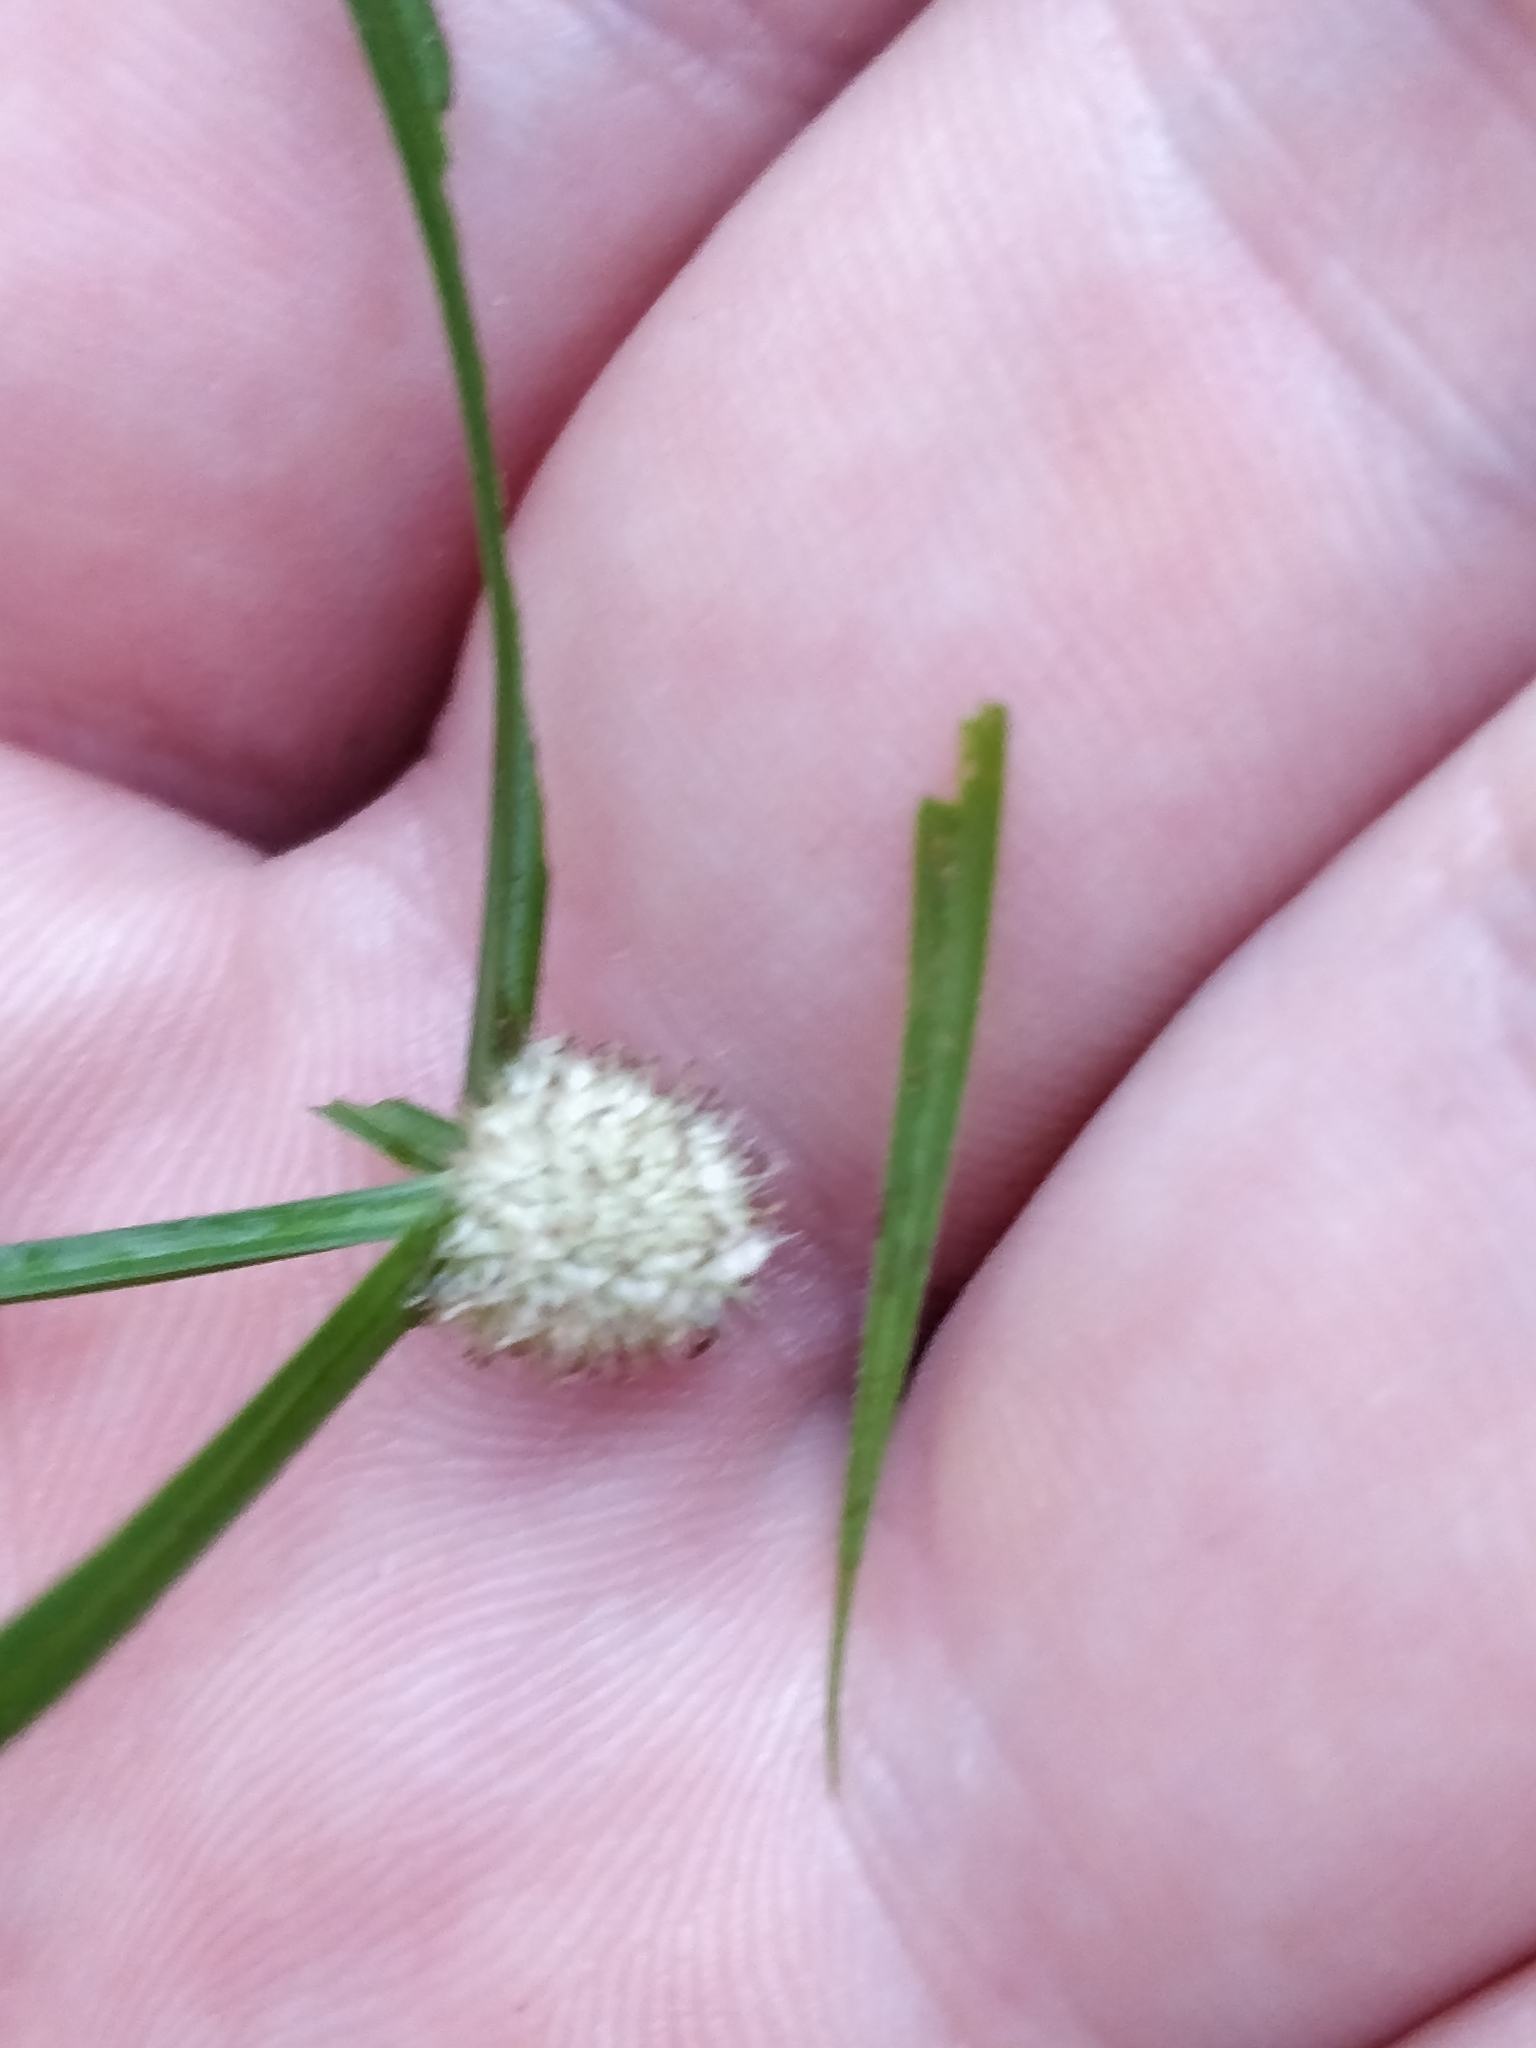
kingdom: Plantae
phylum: Tracheophyta
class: Liliopsida
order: Poales
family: Cyperaceae
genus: Cyperus
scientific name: Cyperus sesquiflorus
